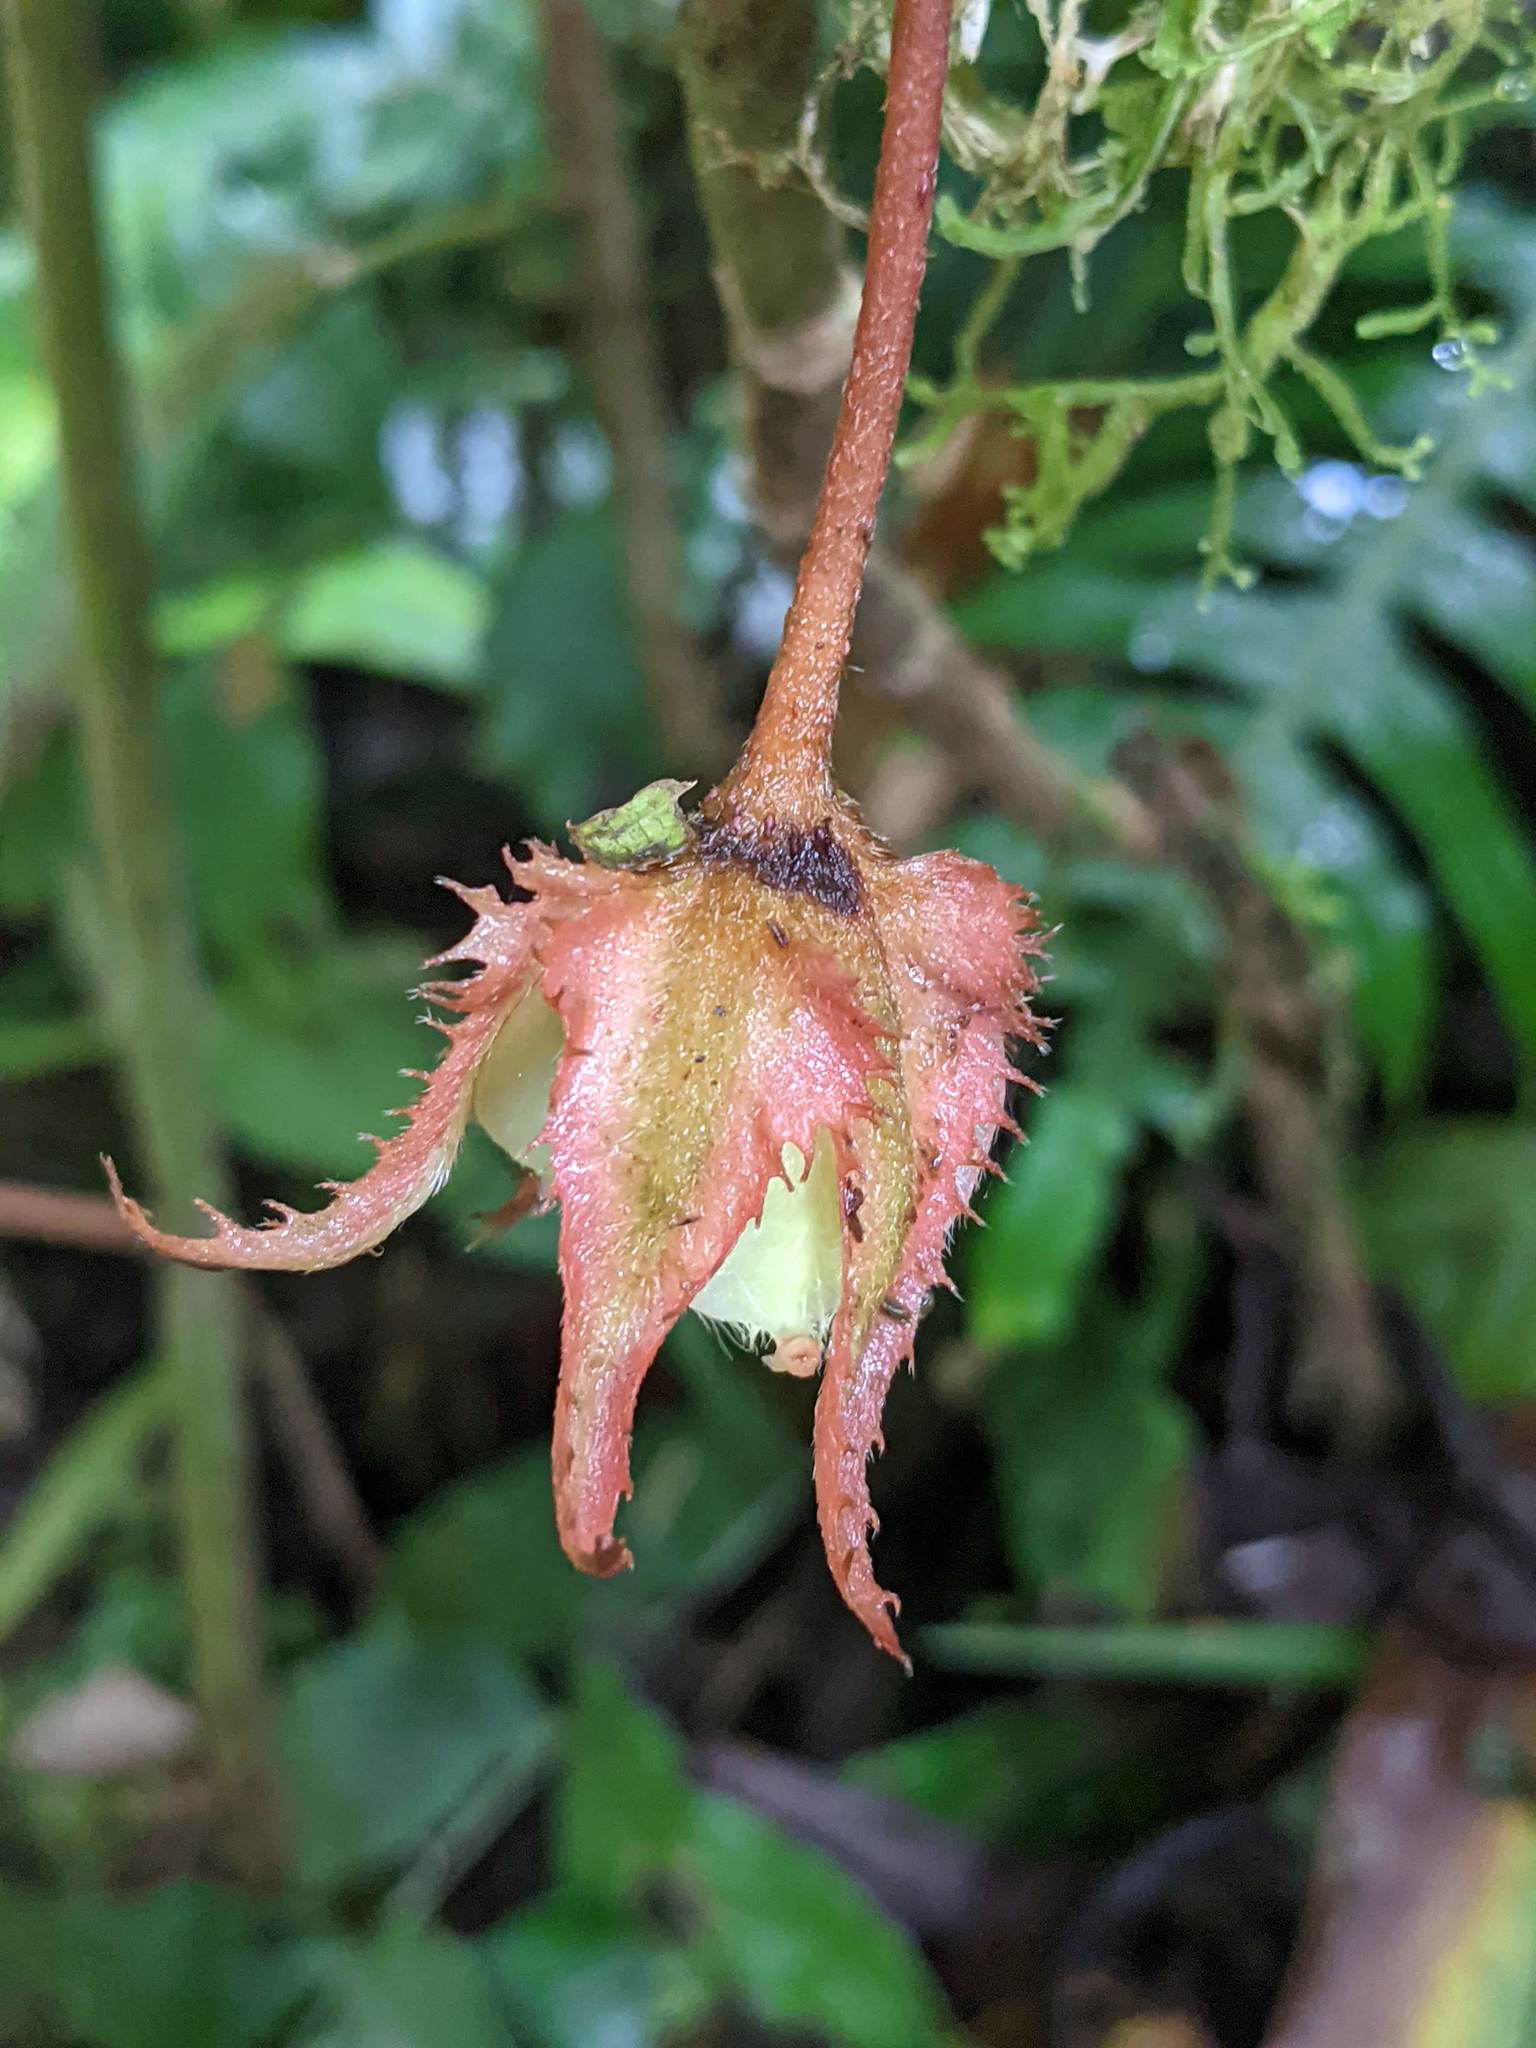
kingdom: Plantae
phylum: Tracheophyta
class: Magnoliopsida
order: Lamiales
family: Gesneriaceae
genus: Glossoloma
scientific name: Glossoloma tetragonum
